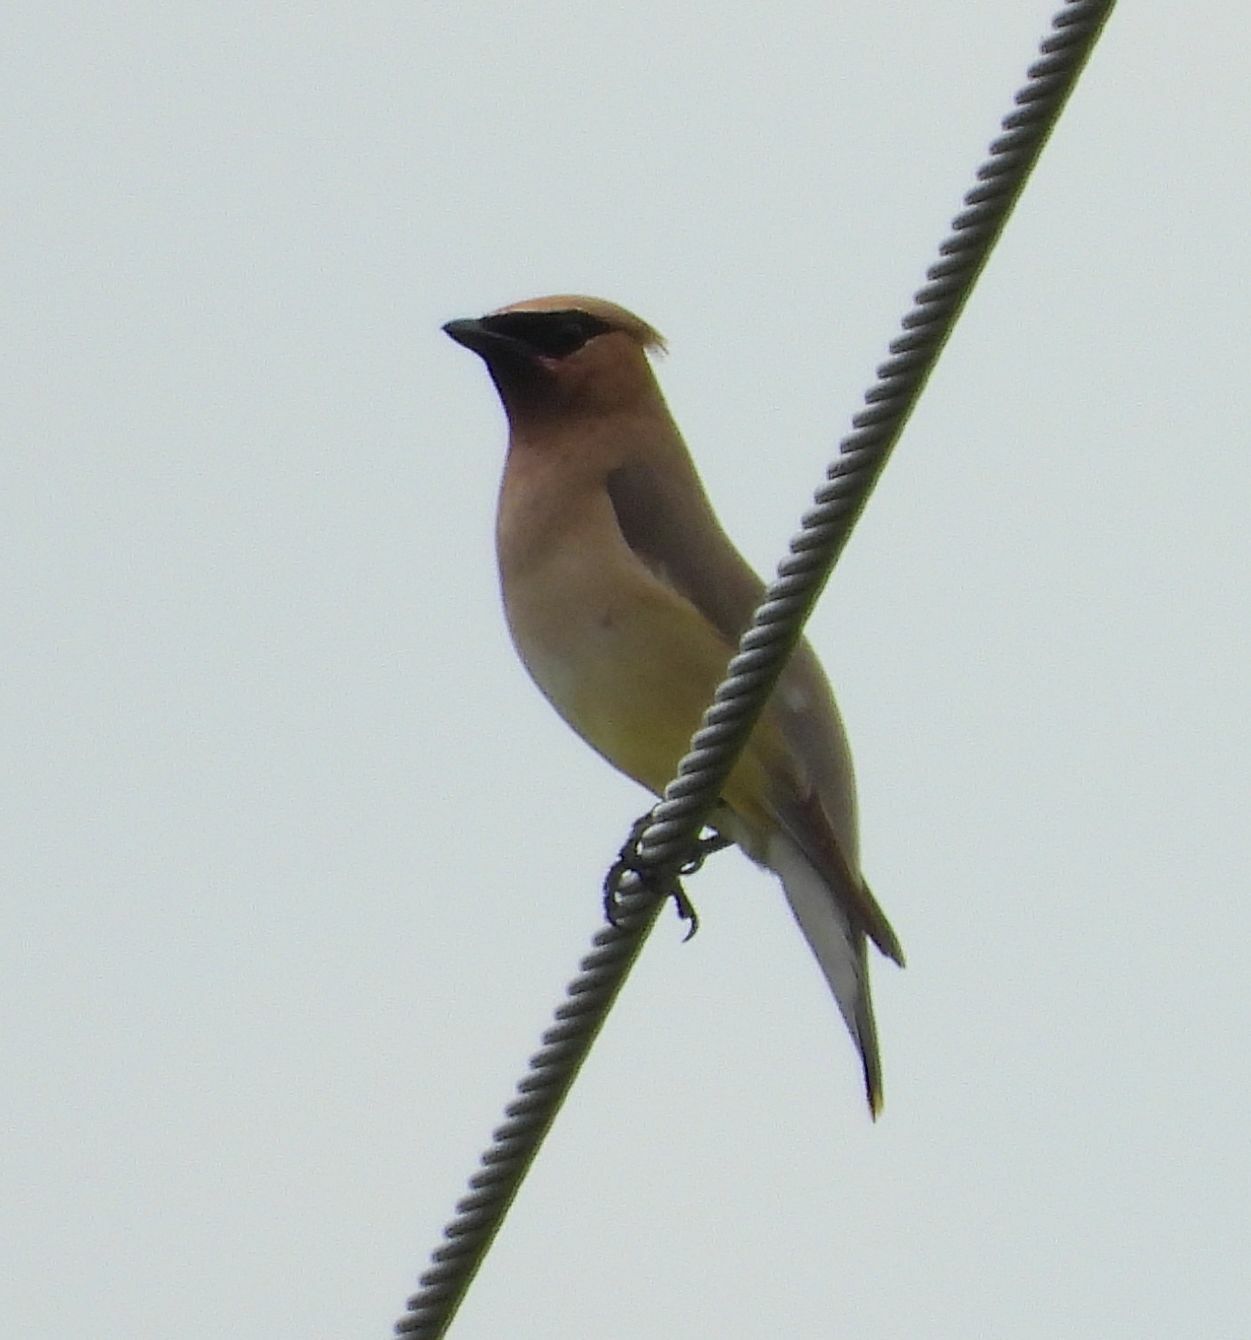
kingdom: Animalia
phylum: Chordata
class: Aves
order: Passeriformes
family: Bombycillidae
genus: Bombycilla
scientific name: Bombycilla cedrorum
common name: Cedar waxwing
